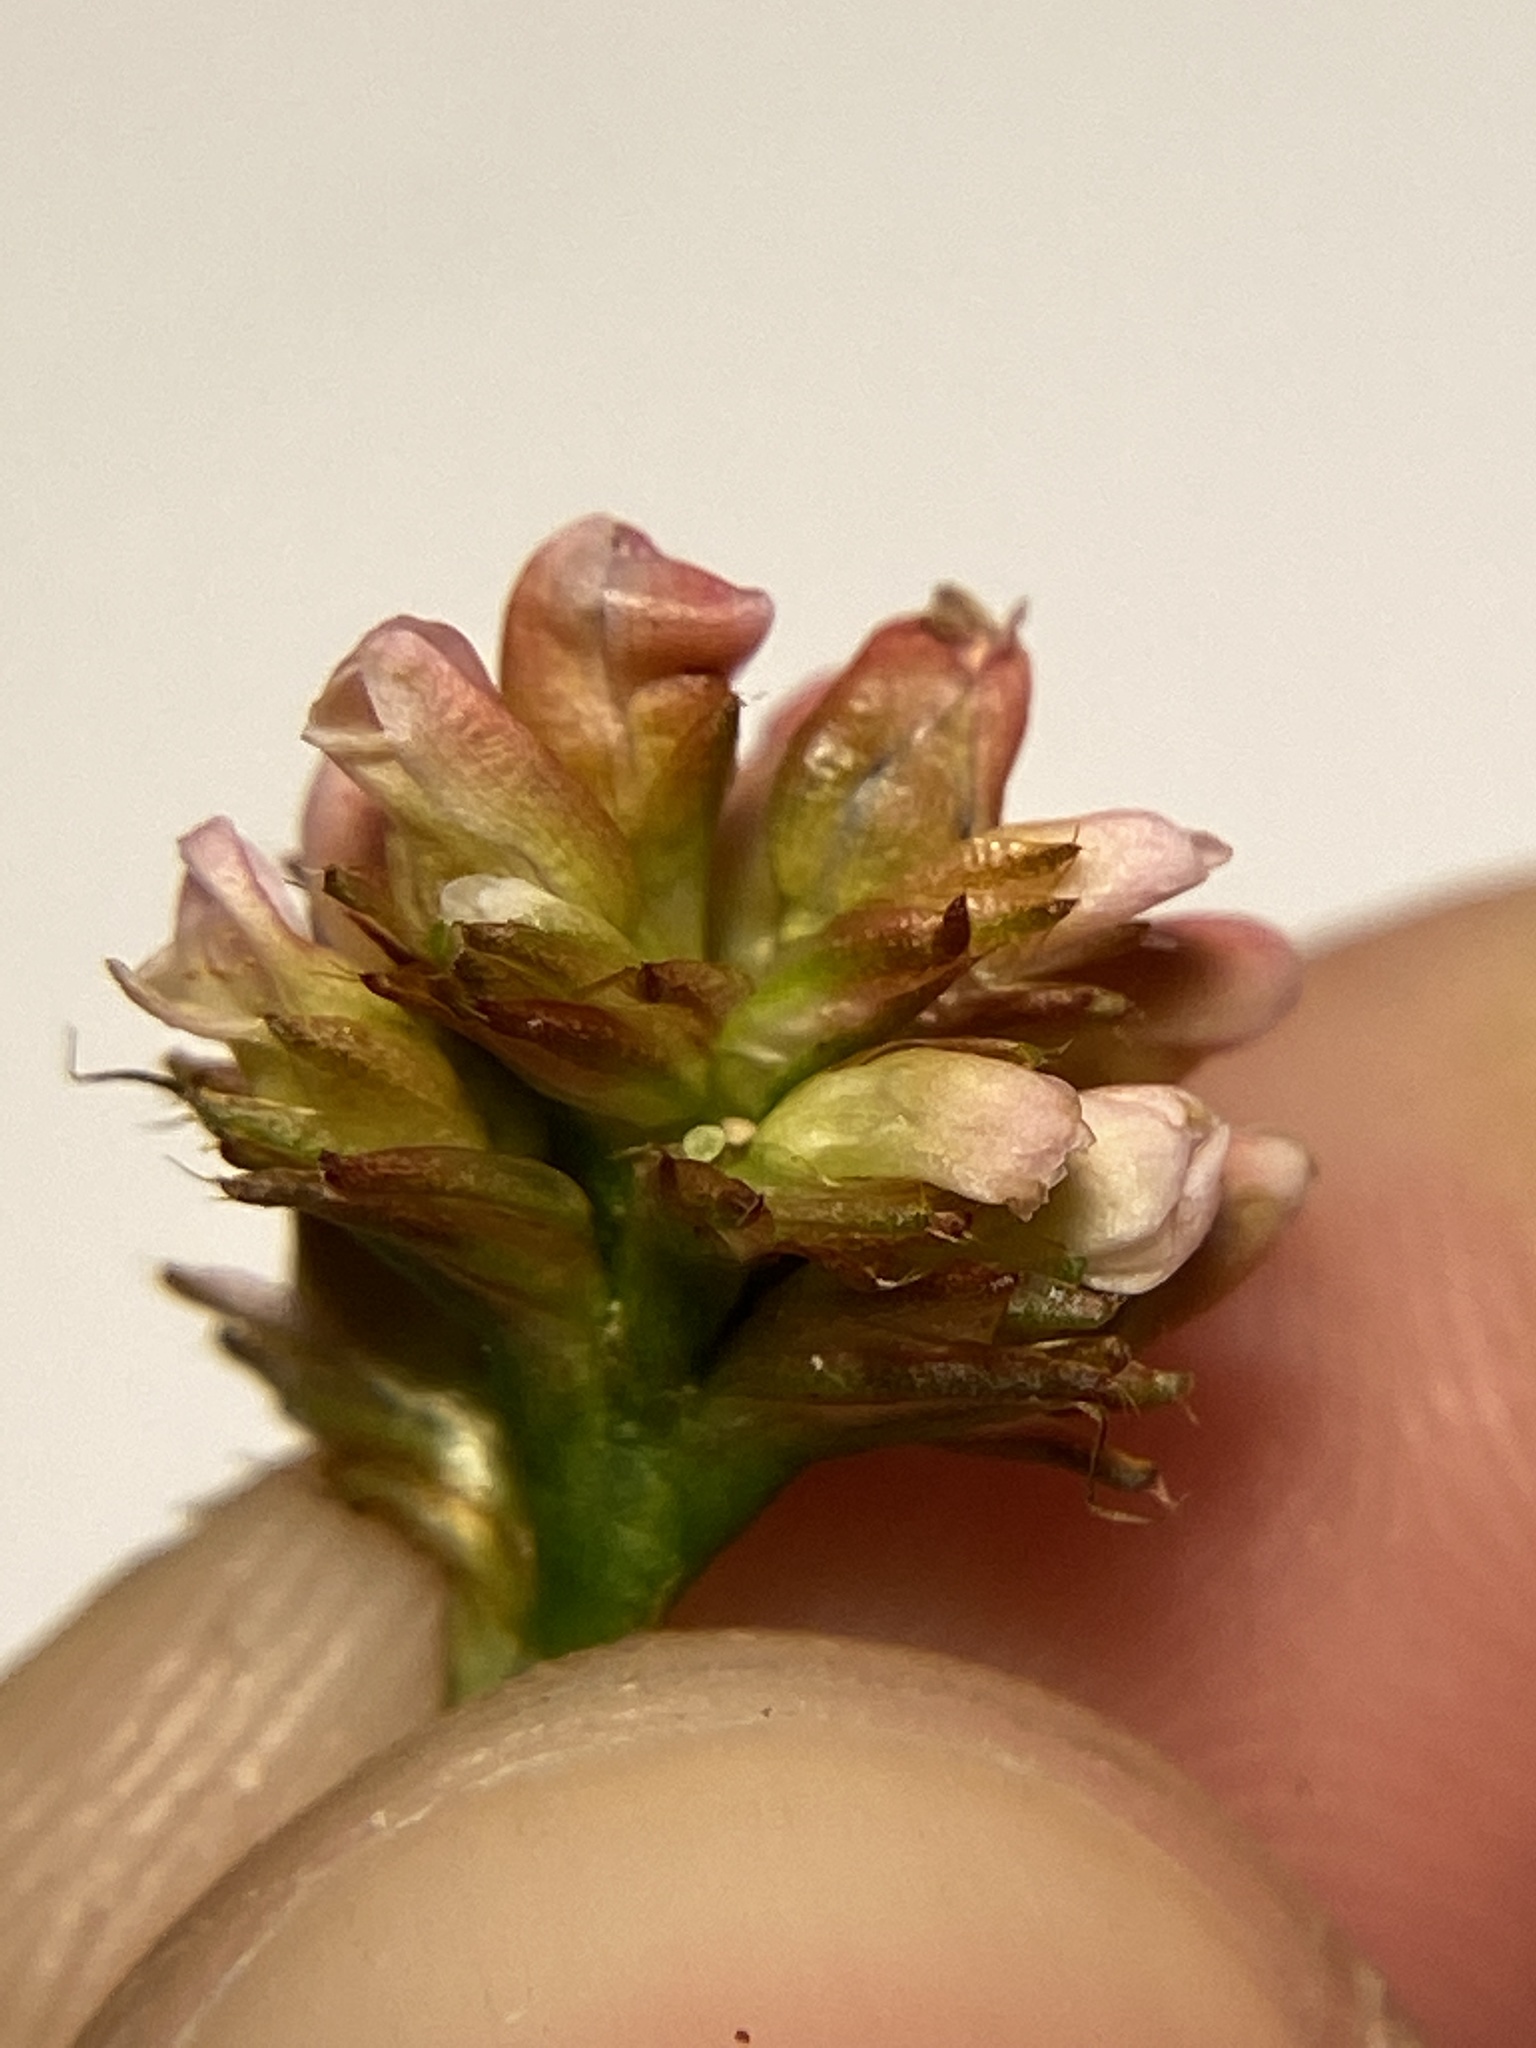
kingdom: Plantae
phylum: Tracheophyta
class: Magnoliopsida
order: Caryophyllales
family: Polygonaceae
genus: Persicaria
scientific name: Persicaria sagittata
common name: American tearthumb
